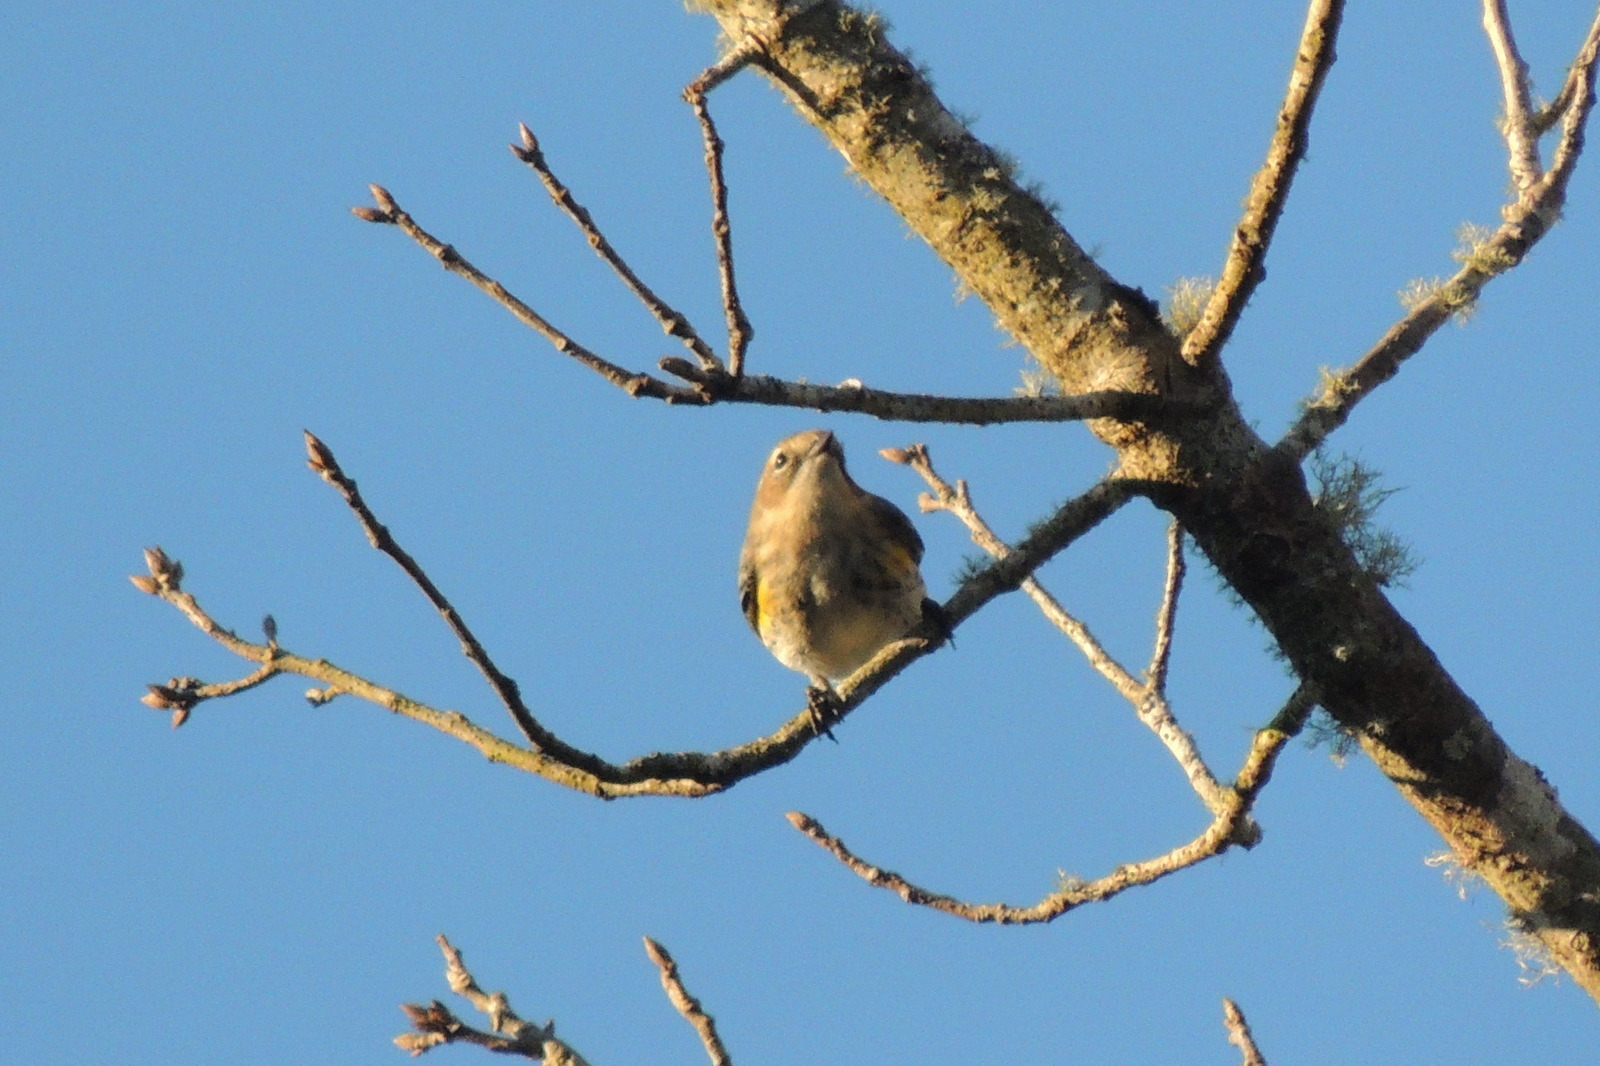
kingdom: Animalia
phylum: Chordata
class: Aves
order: Passeriformes
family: Parulidae
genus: Setophaga
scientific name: Setophaga coronata
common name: Myrtle warbler
